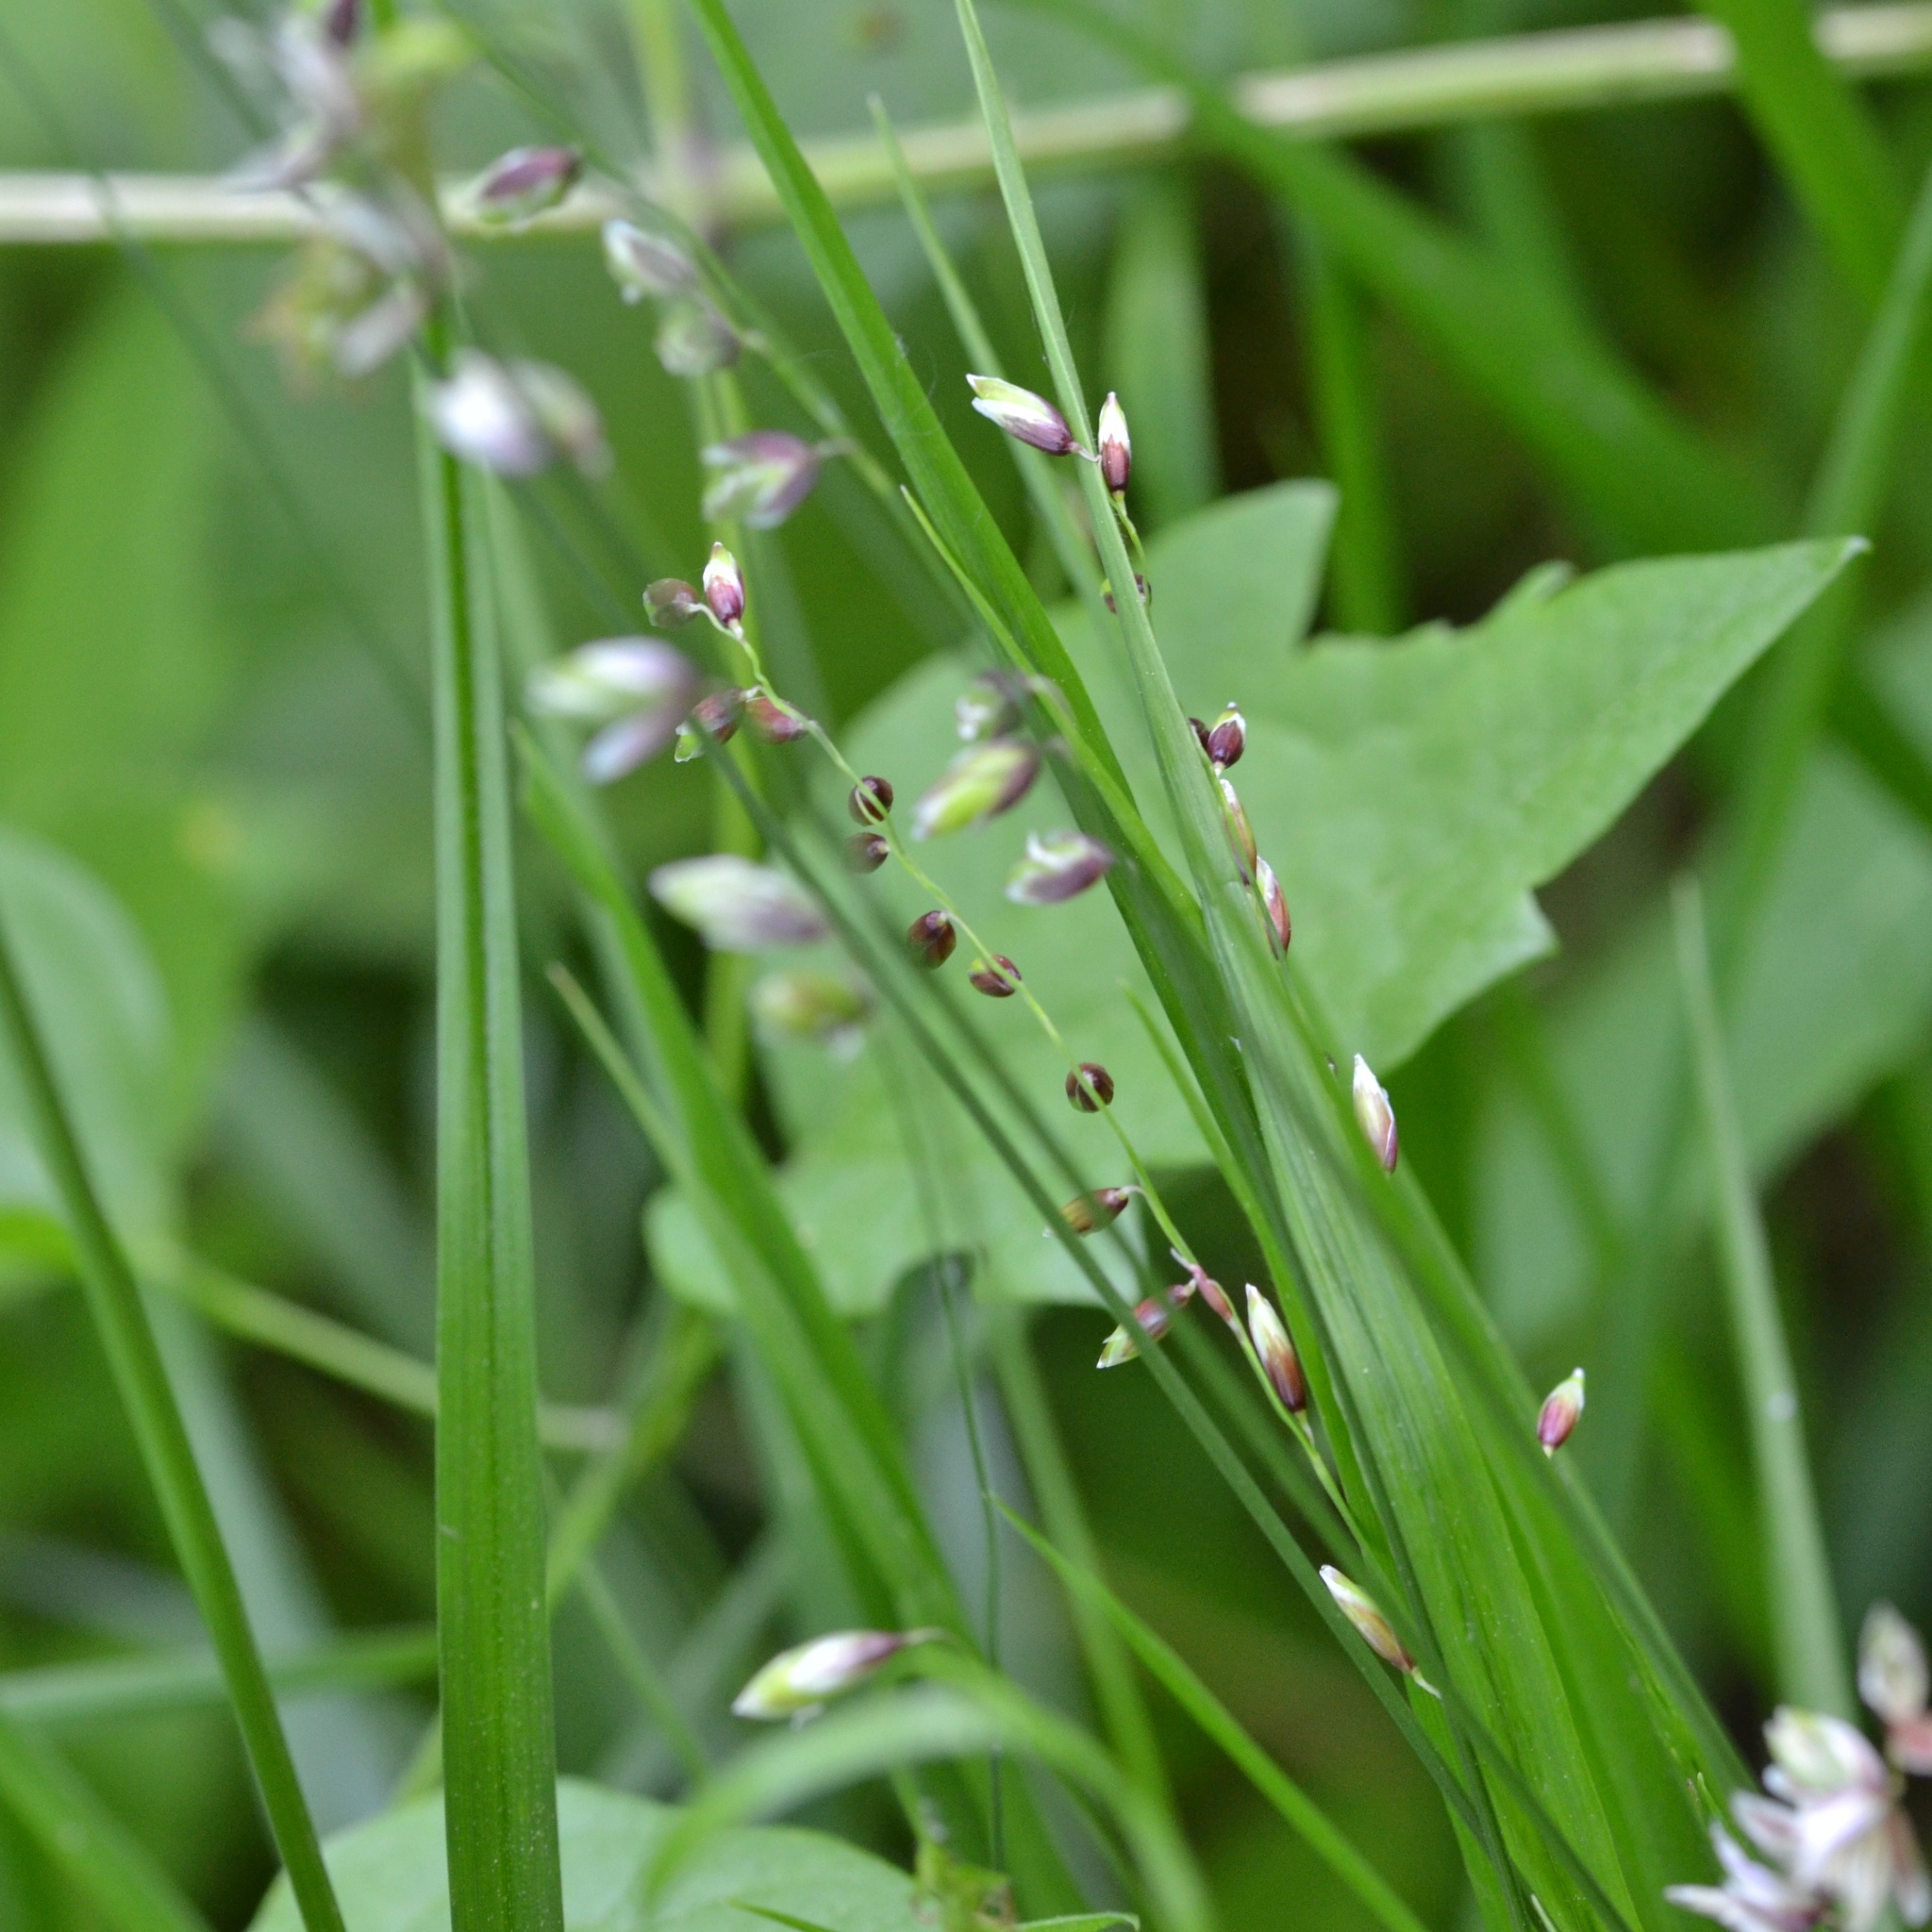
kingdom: Plantae
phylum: Tracheophyta
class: Liliopsida
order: Poales
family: Poaceae
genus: Melica
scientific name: Melica nutans
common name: Mountain melick
